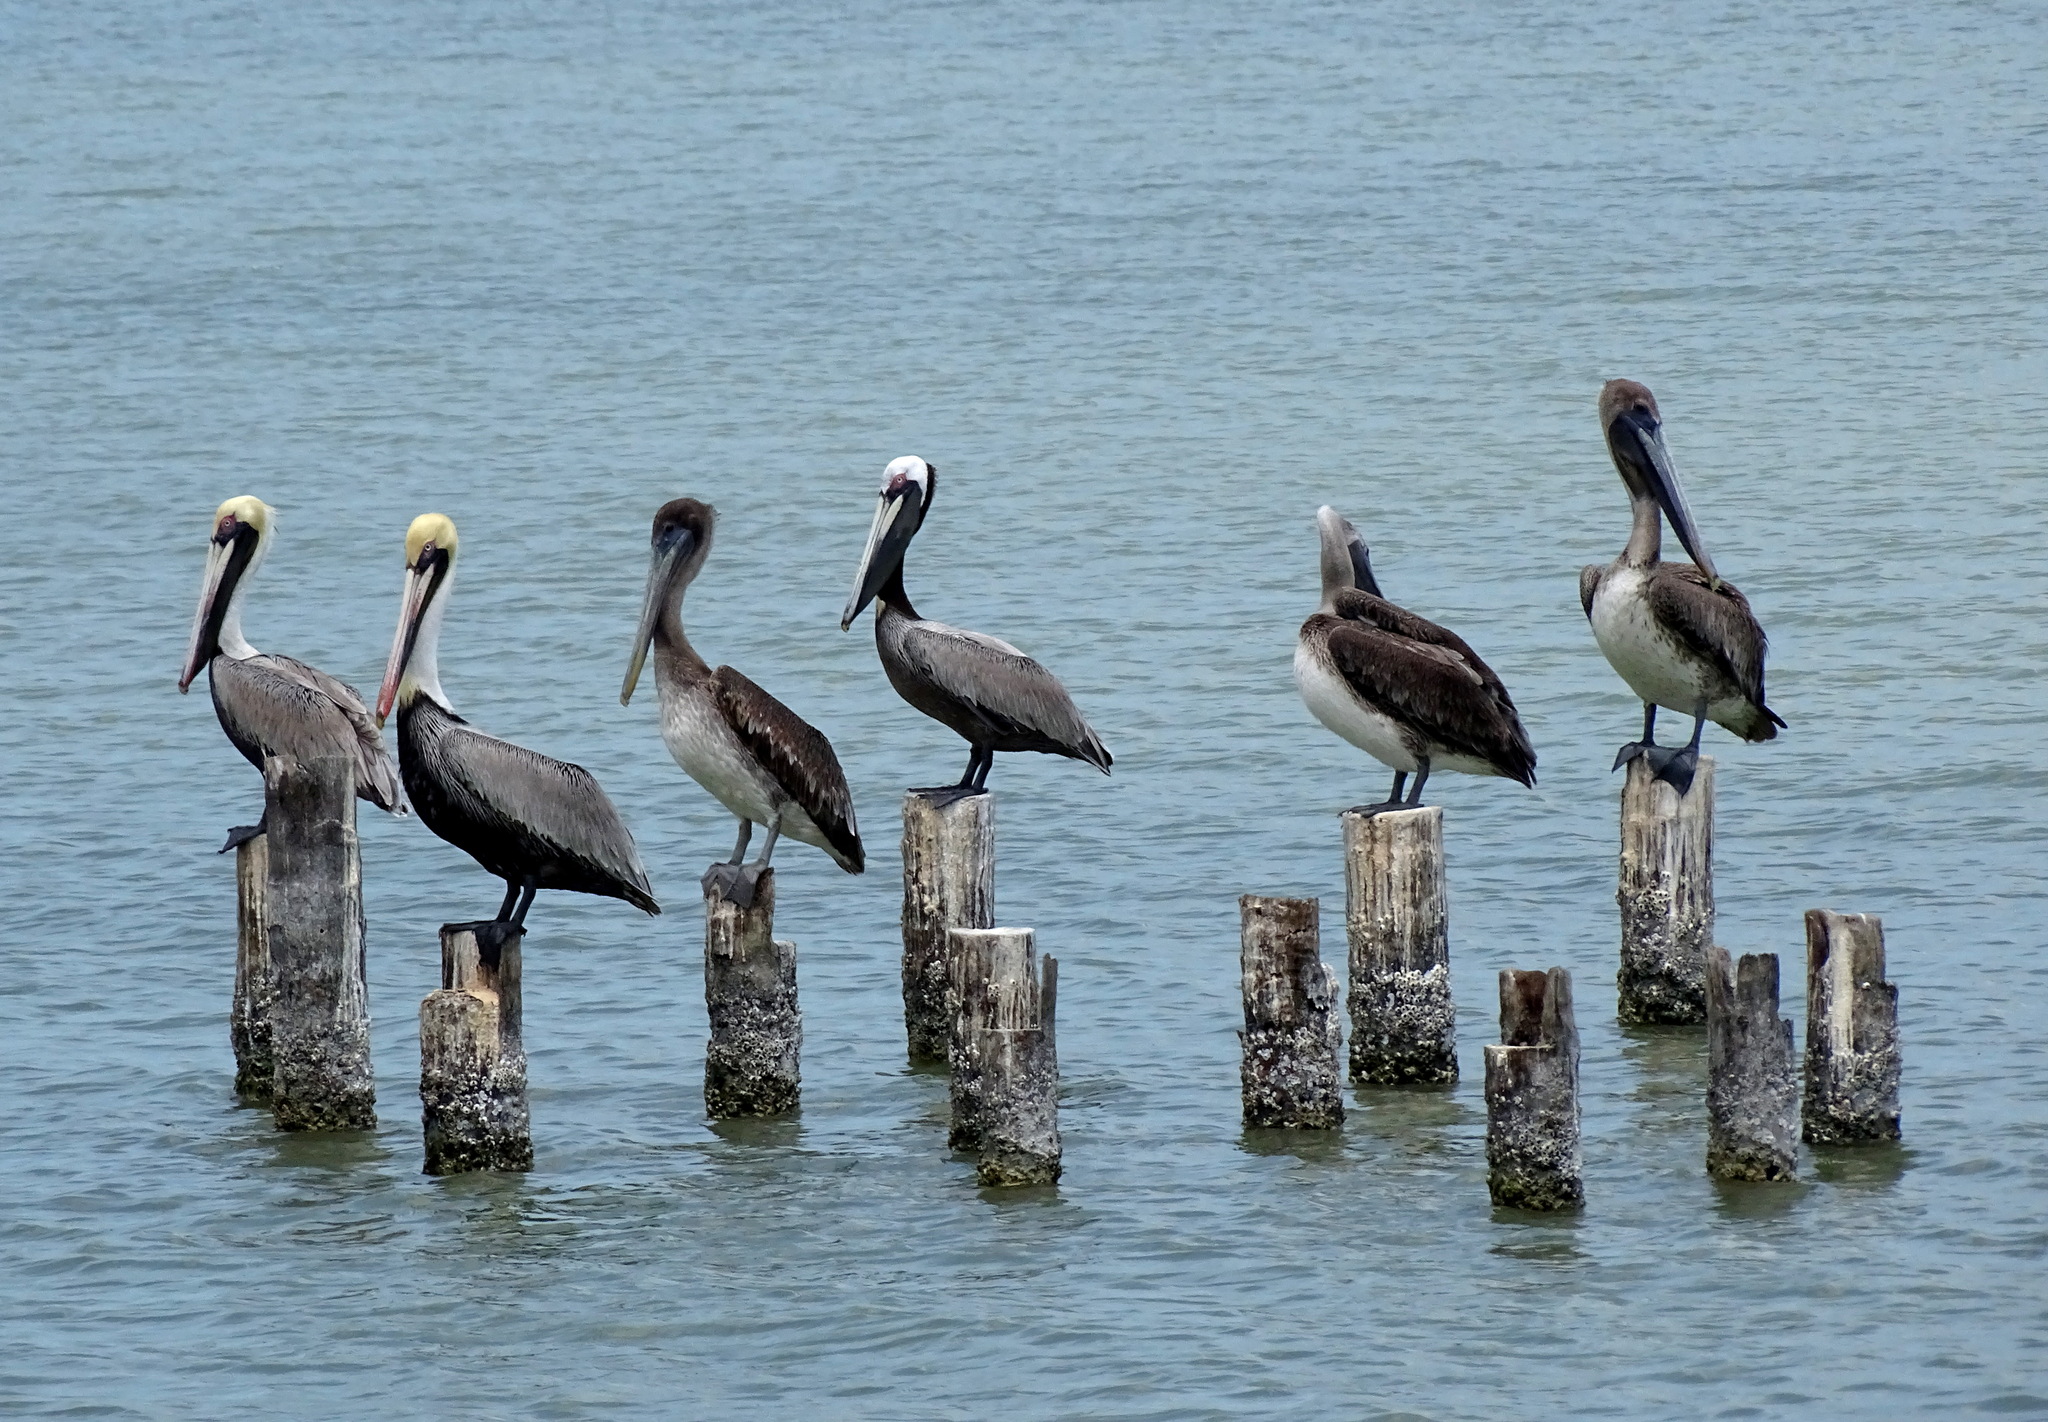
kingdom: Animalia
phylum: Chordata
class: Aves
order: Pelecaniformes
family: Pelecanidae
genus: Pelecanus
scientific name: Pelecanus occidentalis
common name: Brown pelican
